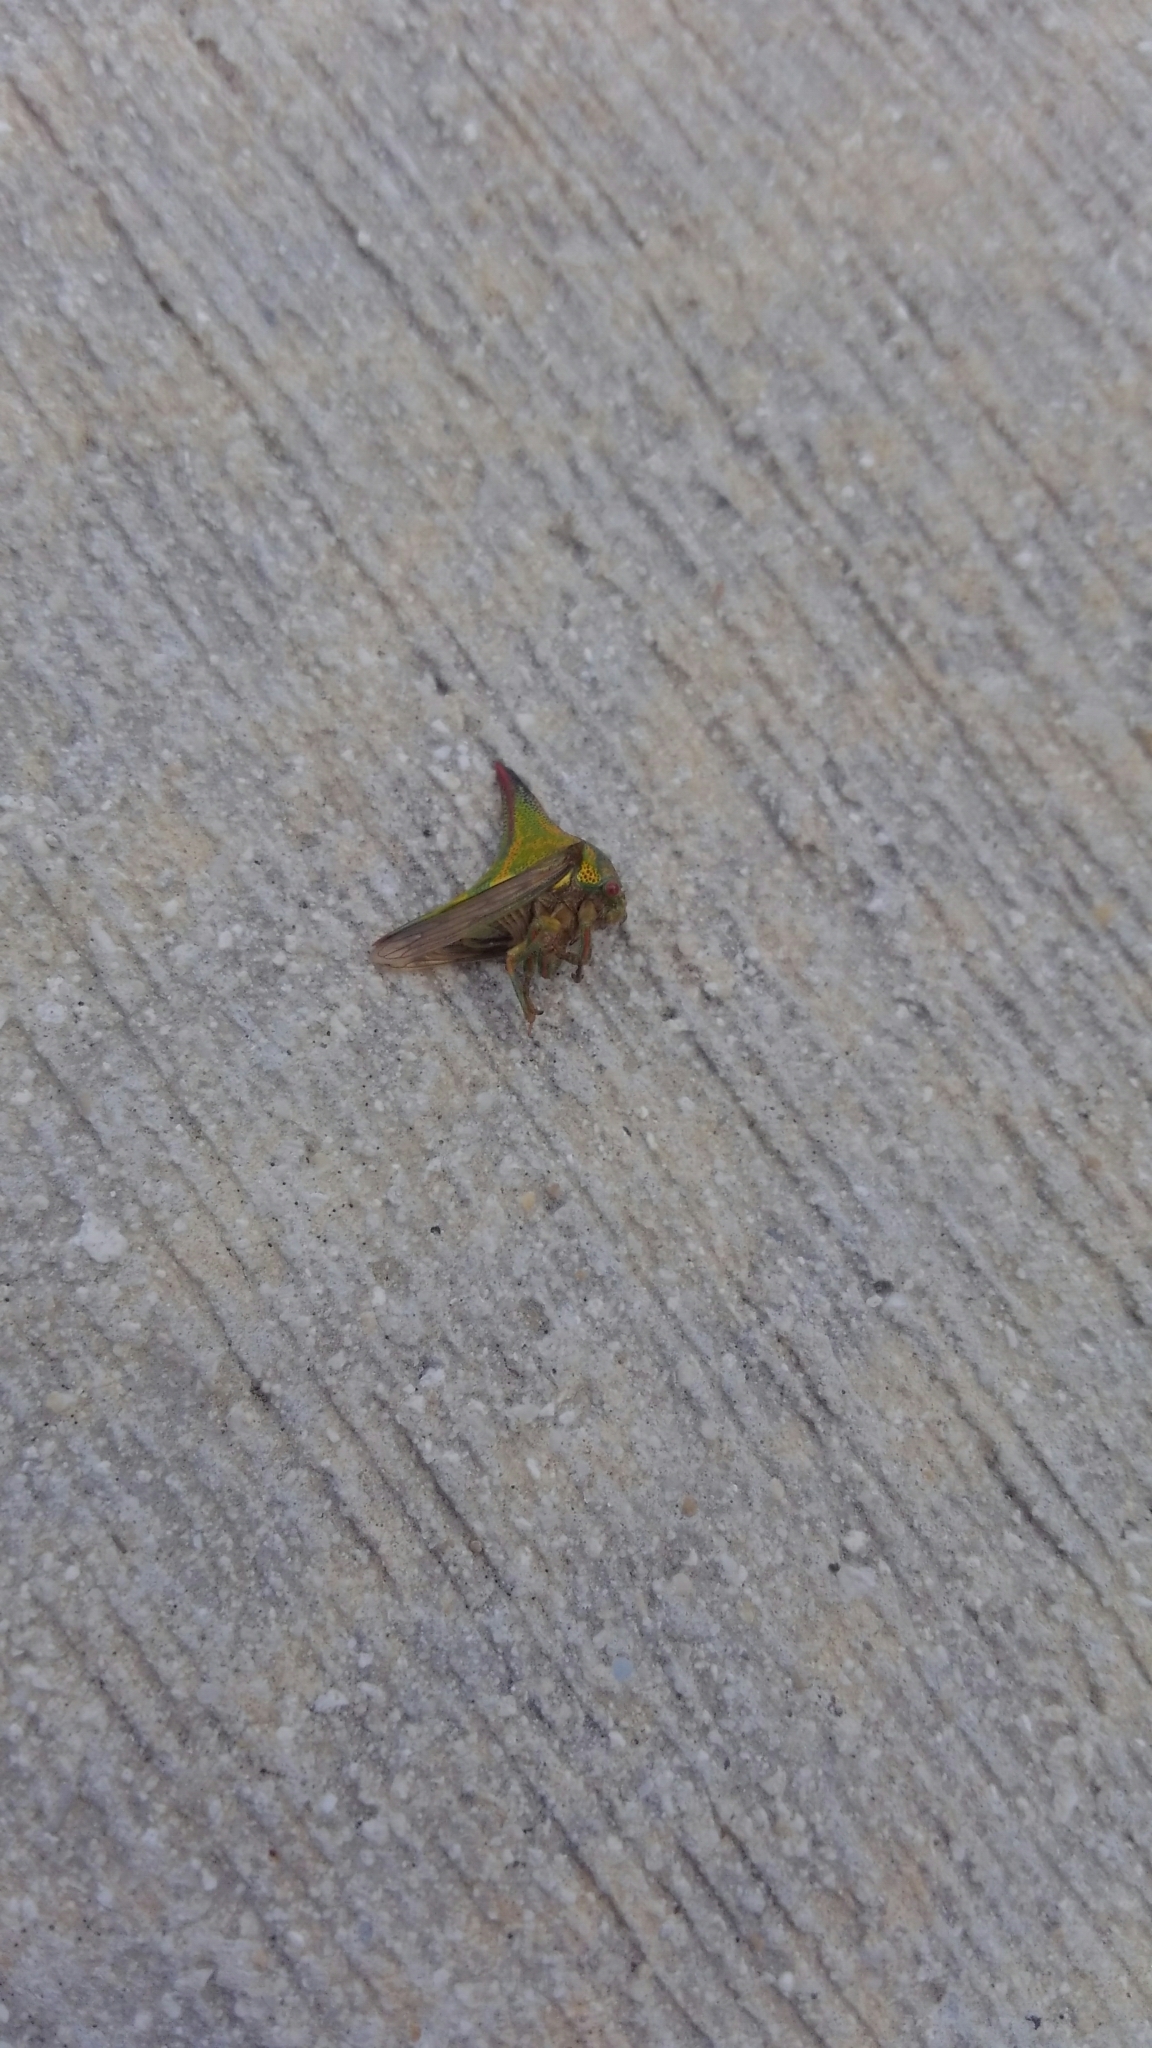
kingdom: Animalia
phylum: Arthropoda
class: Insecta
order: Hemiptera
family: Membracidae
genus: Umbonia
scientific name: Umbonia crassicornis
